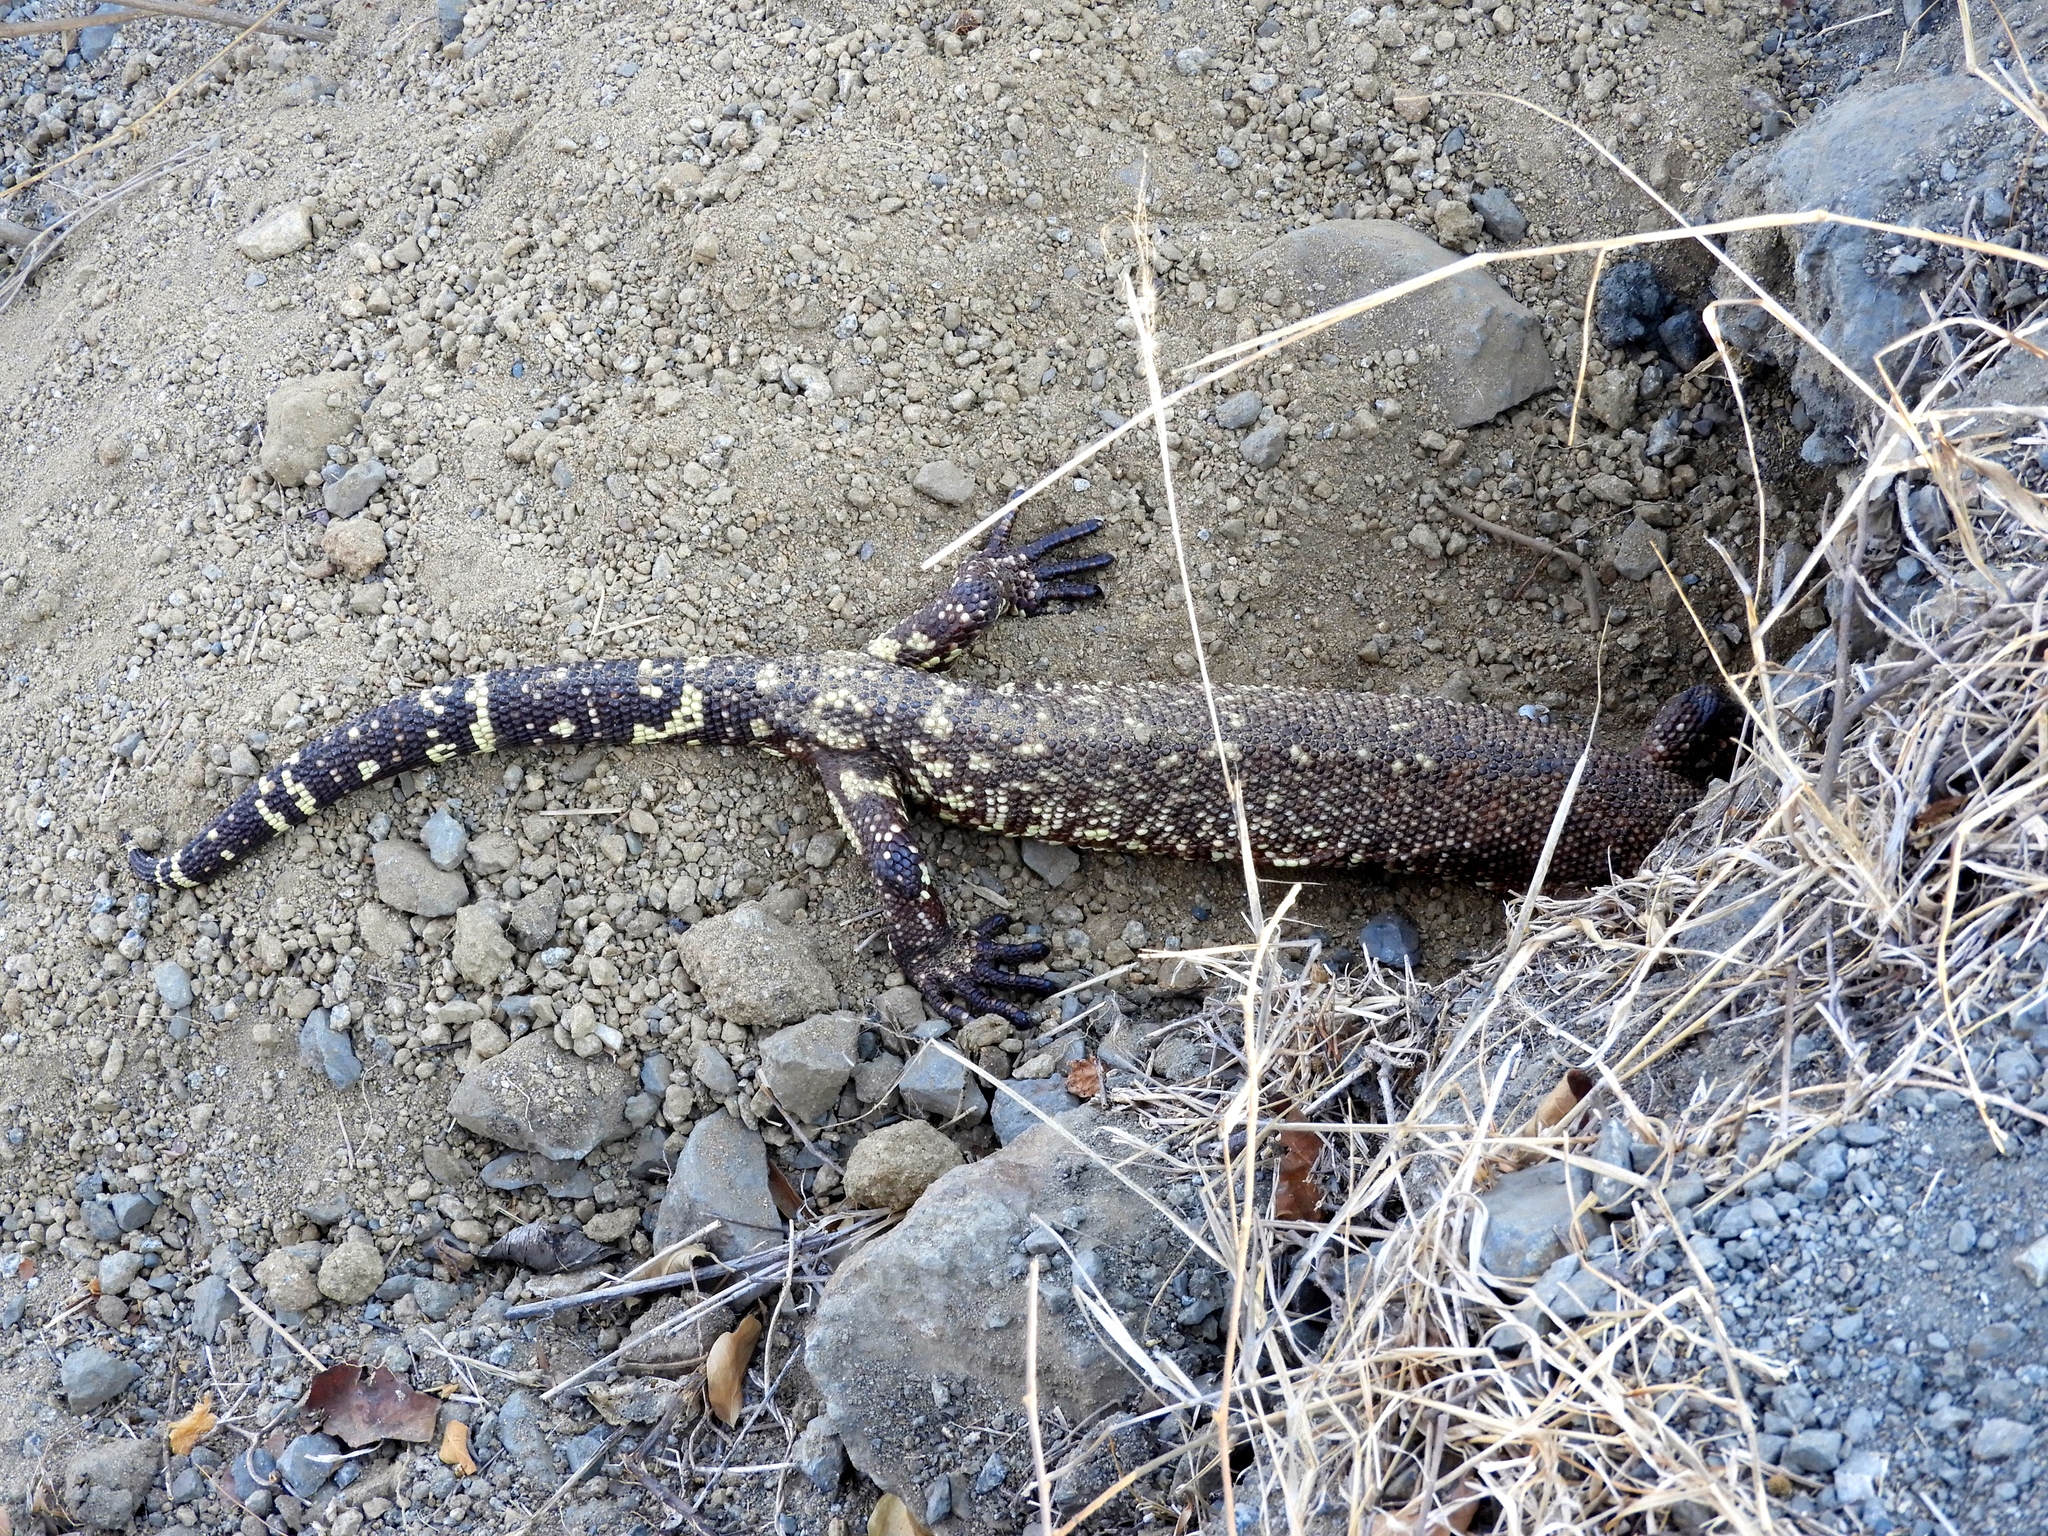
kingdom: Animalia
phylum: Chordata
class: Squamata
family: Helodermatidae
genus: Heloderma
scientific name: Heloderma horridum
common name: Mexican beaded lizard
